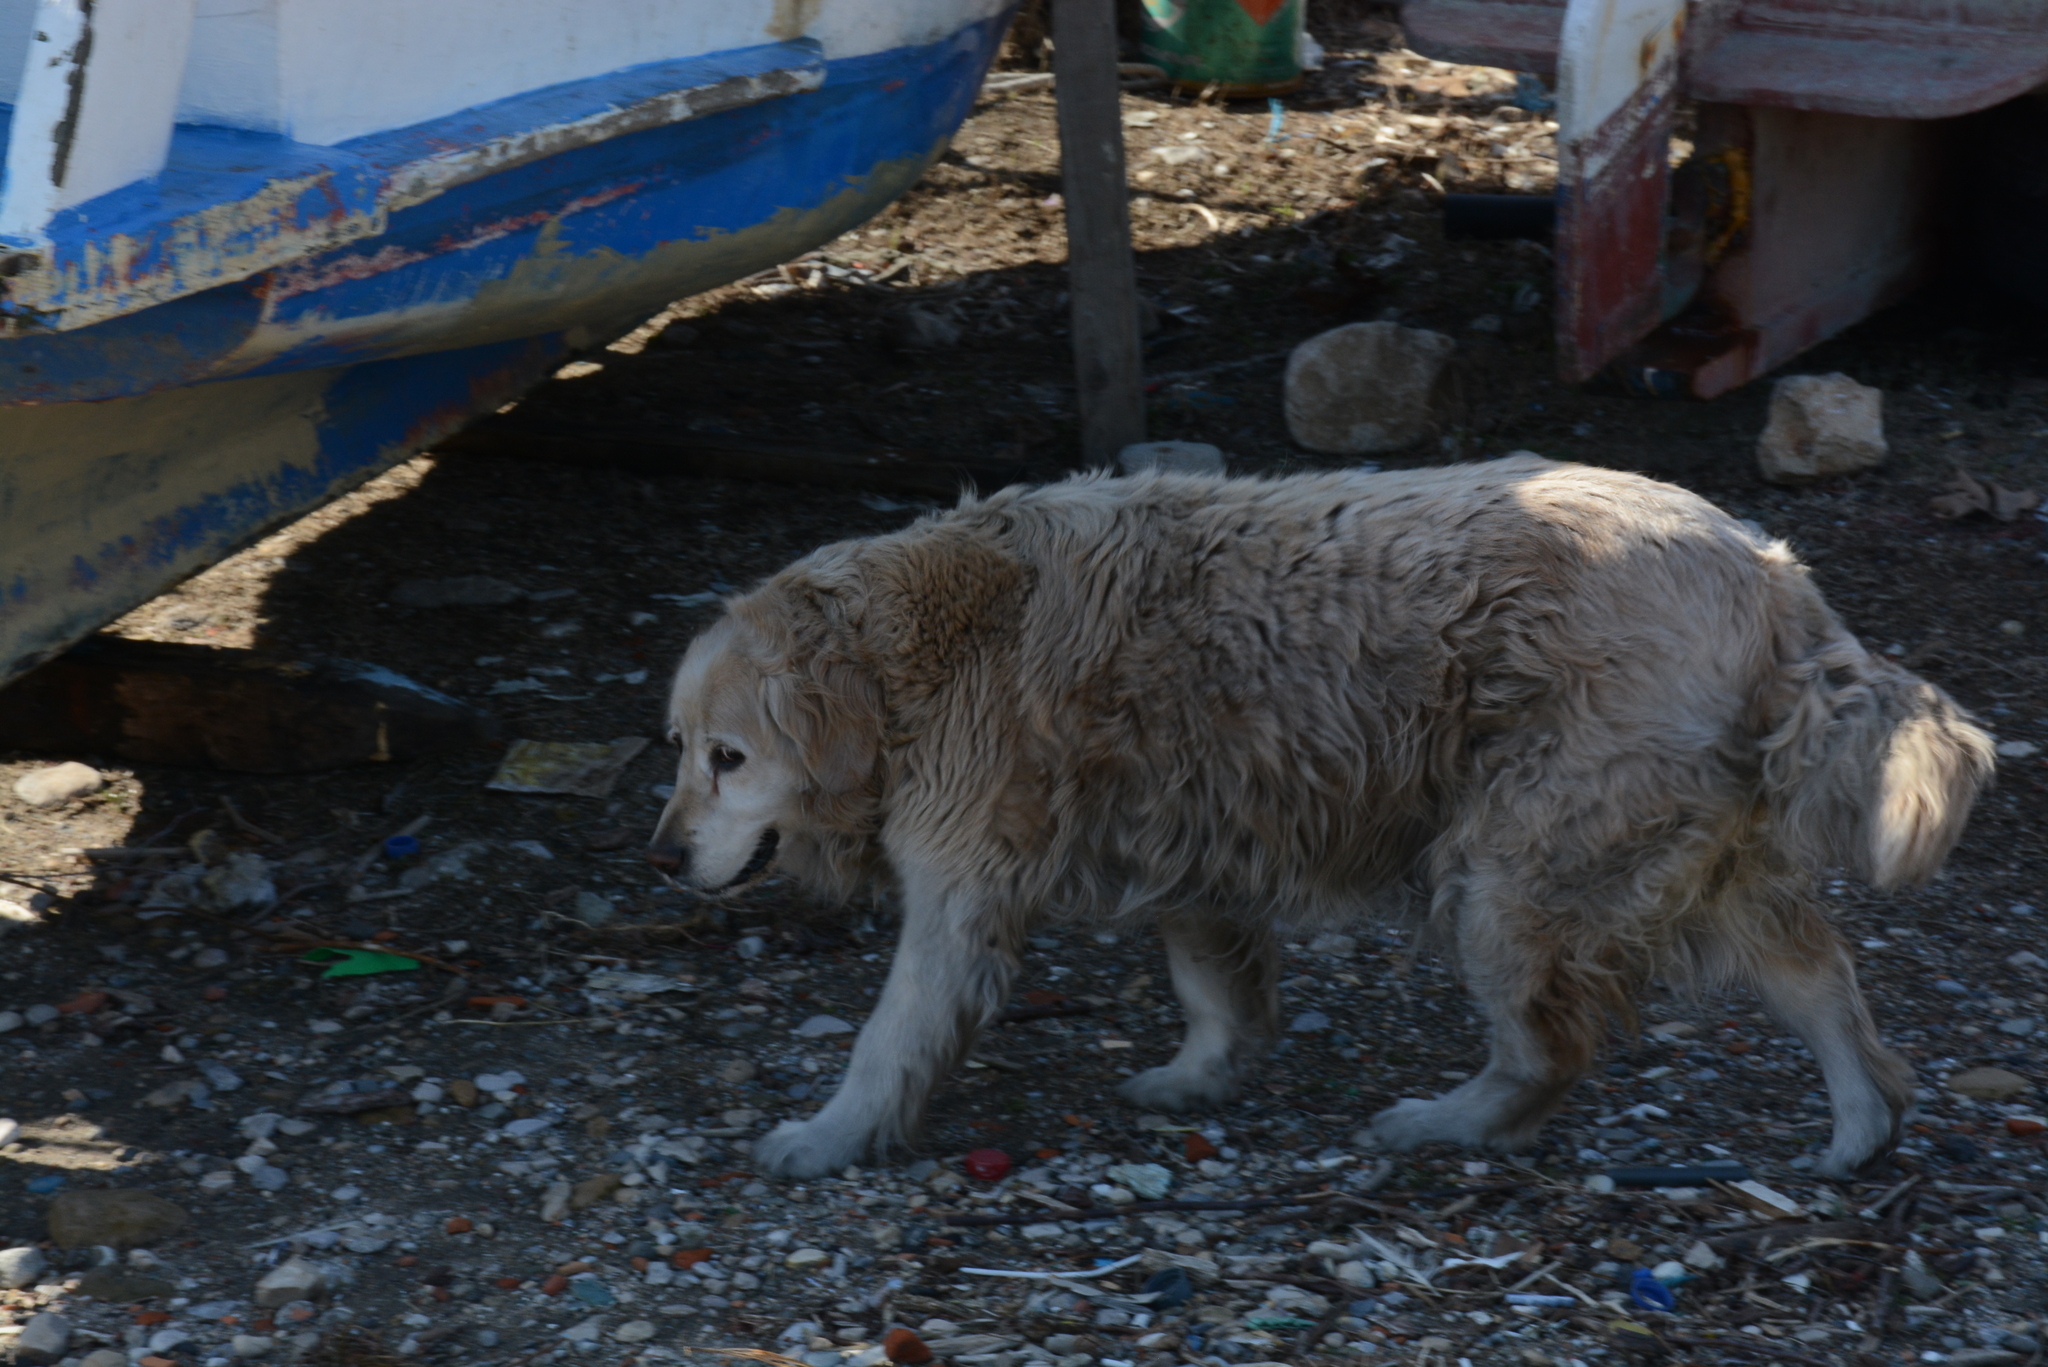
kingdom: Animalia
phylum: Chordata
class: Mammalia
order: Carnivora
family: Canidae
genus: Canis
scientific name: Canis lupus
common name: Gray wolf
